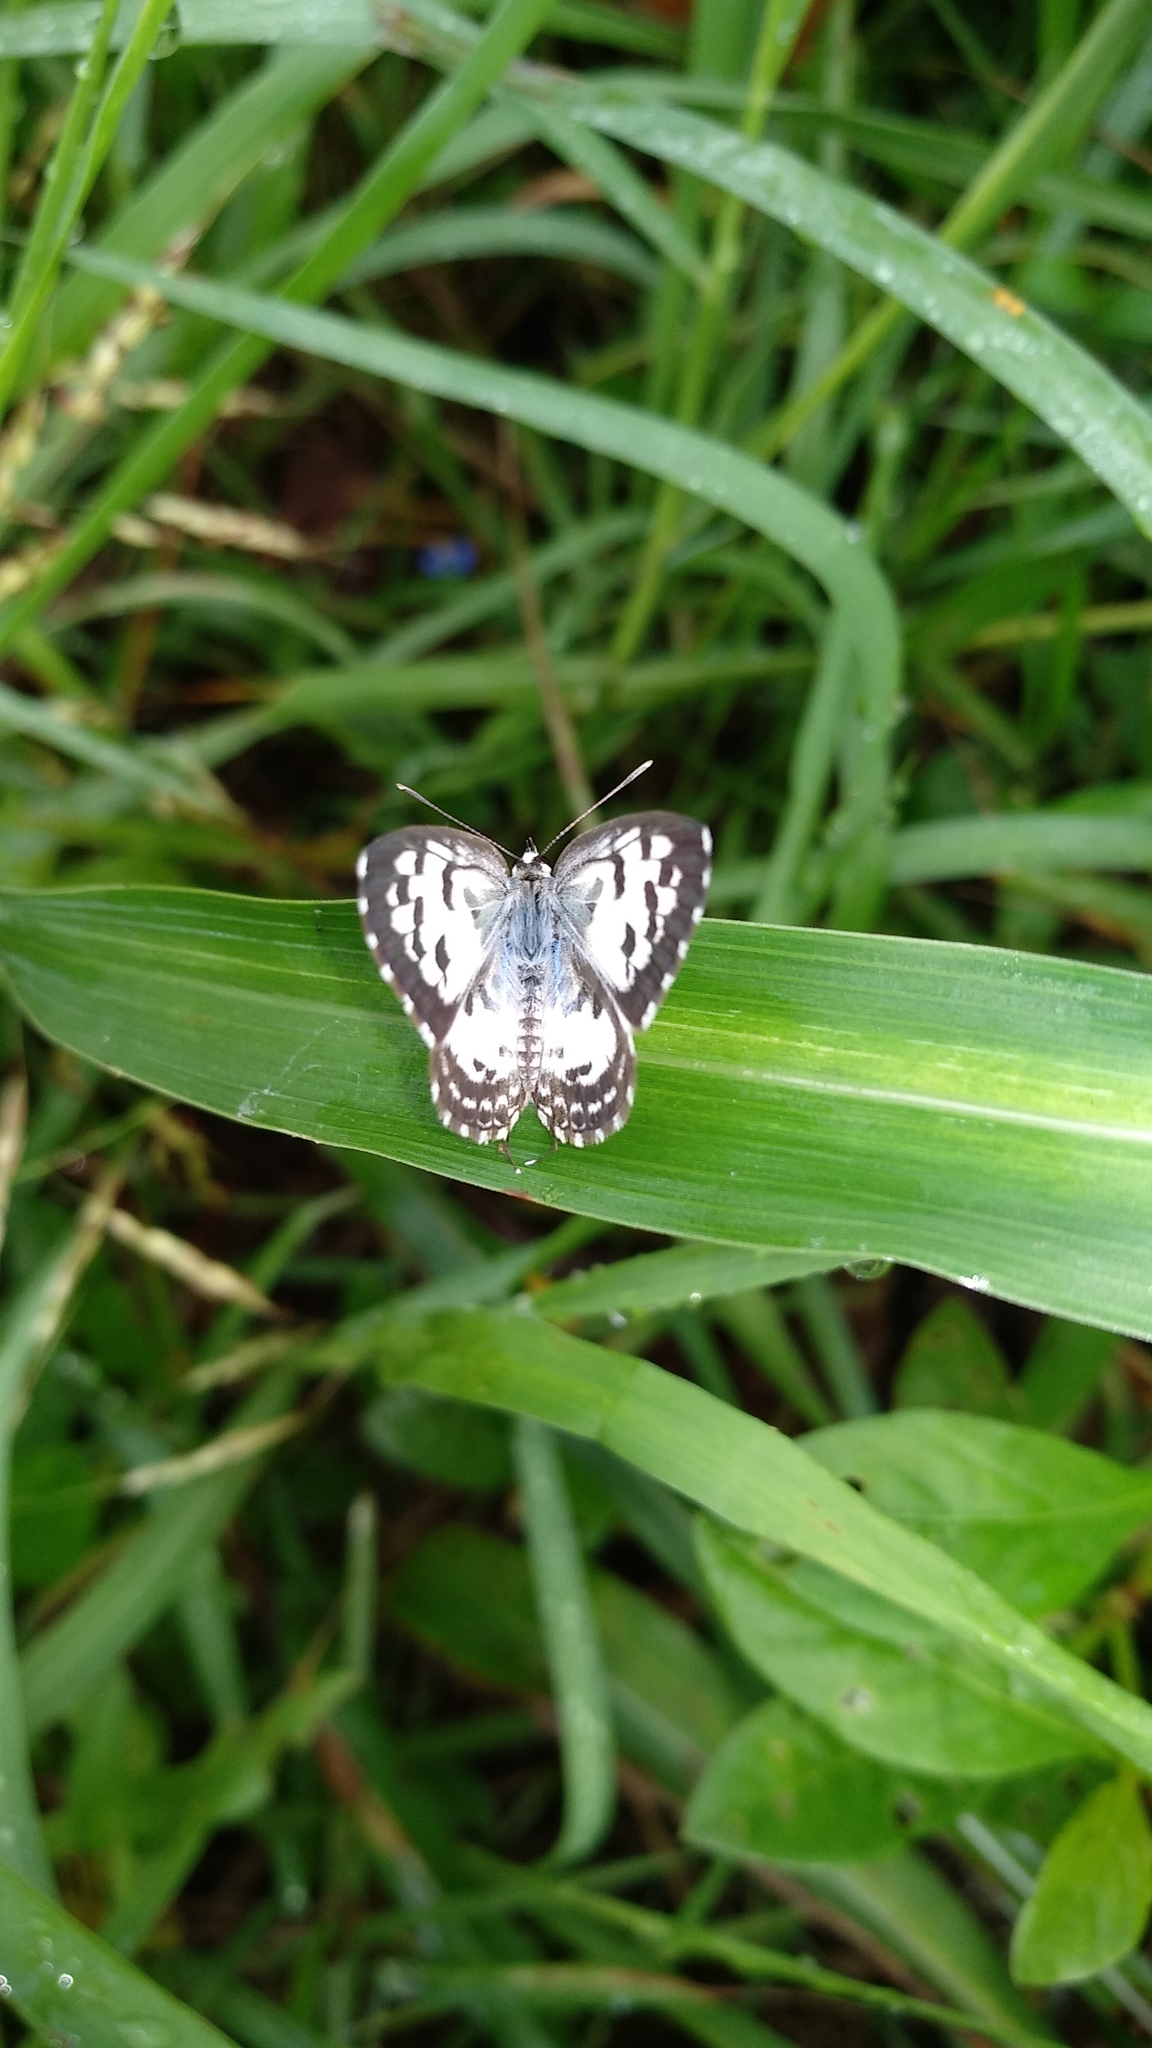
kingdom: Animalia
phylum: Arthropoda
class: Insecta
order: Lepidoptera
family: Lycaenidae
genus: Castalius
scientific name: Castalius rosimon
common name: Common pierrot
